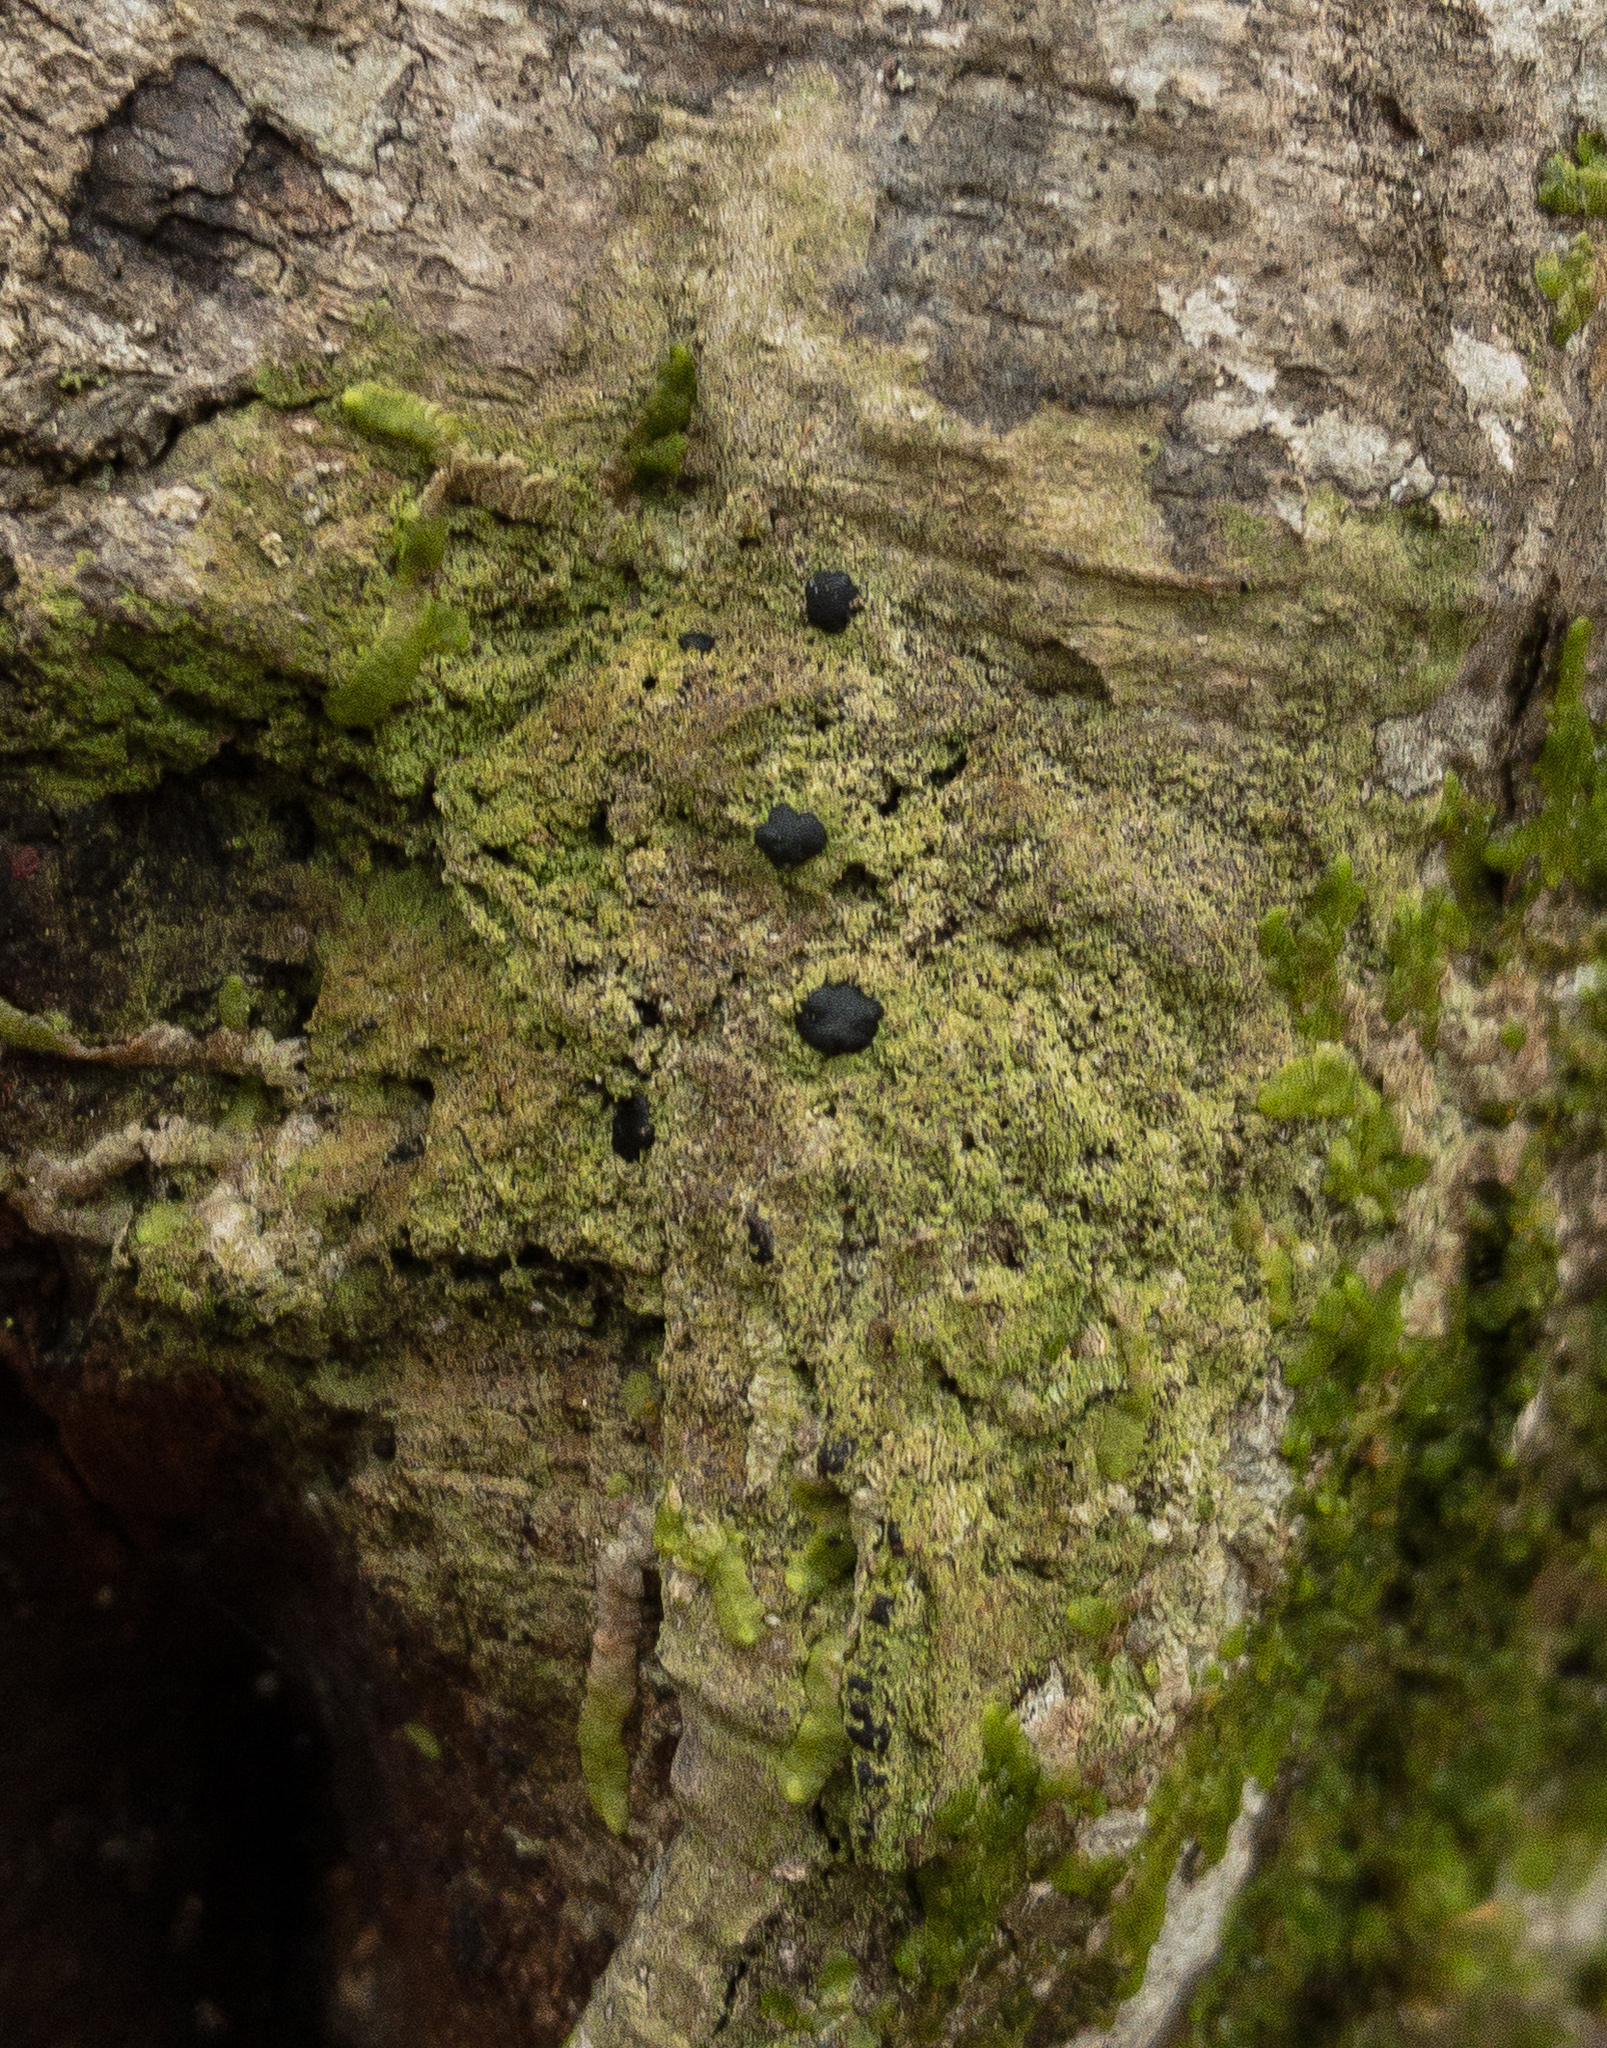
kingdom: Fungi
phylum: Ascomycota
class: Lecanoromycetes
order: Lecanorales
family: Ramalinaceae
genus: Bacidia
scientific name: Bacidia schweinitzii
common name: Surprise lichen
